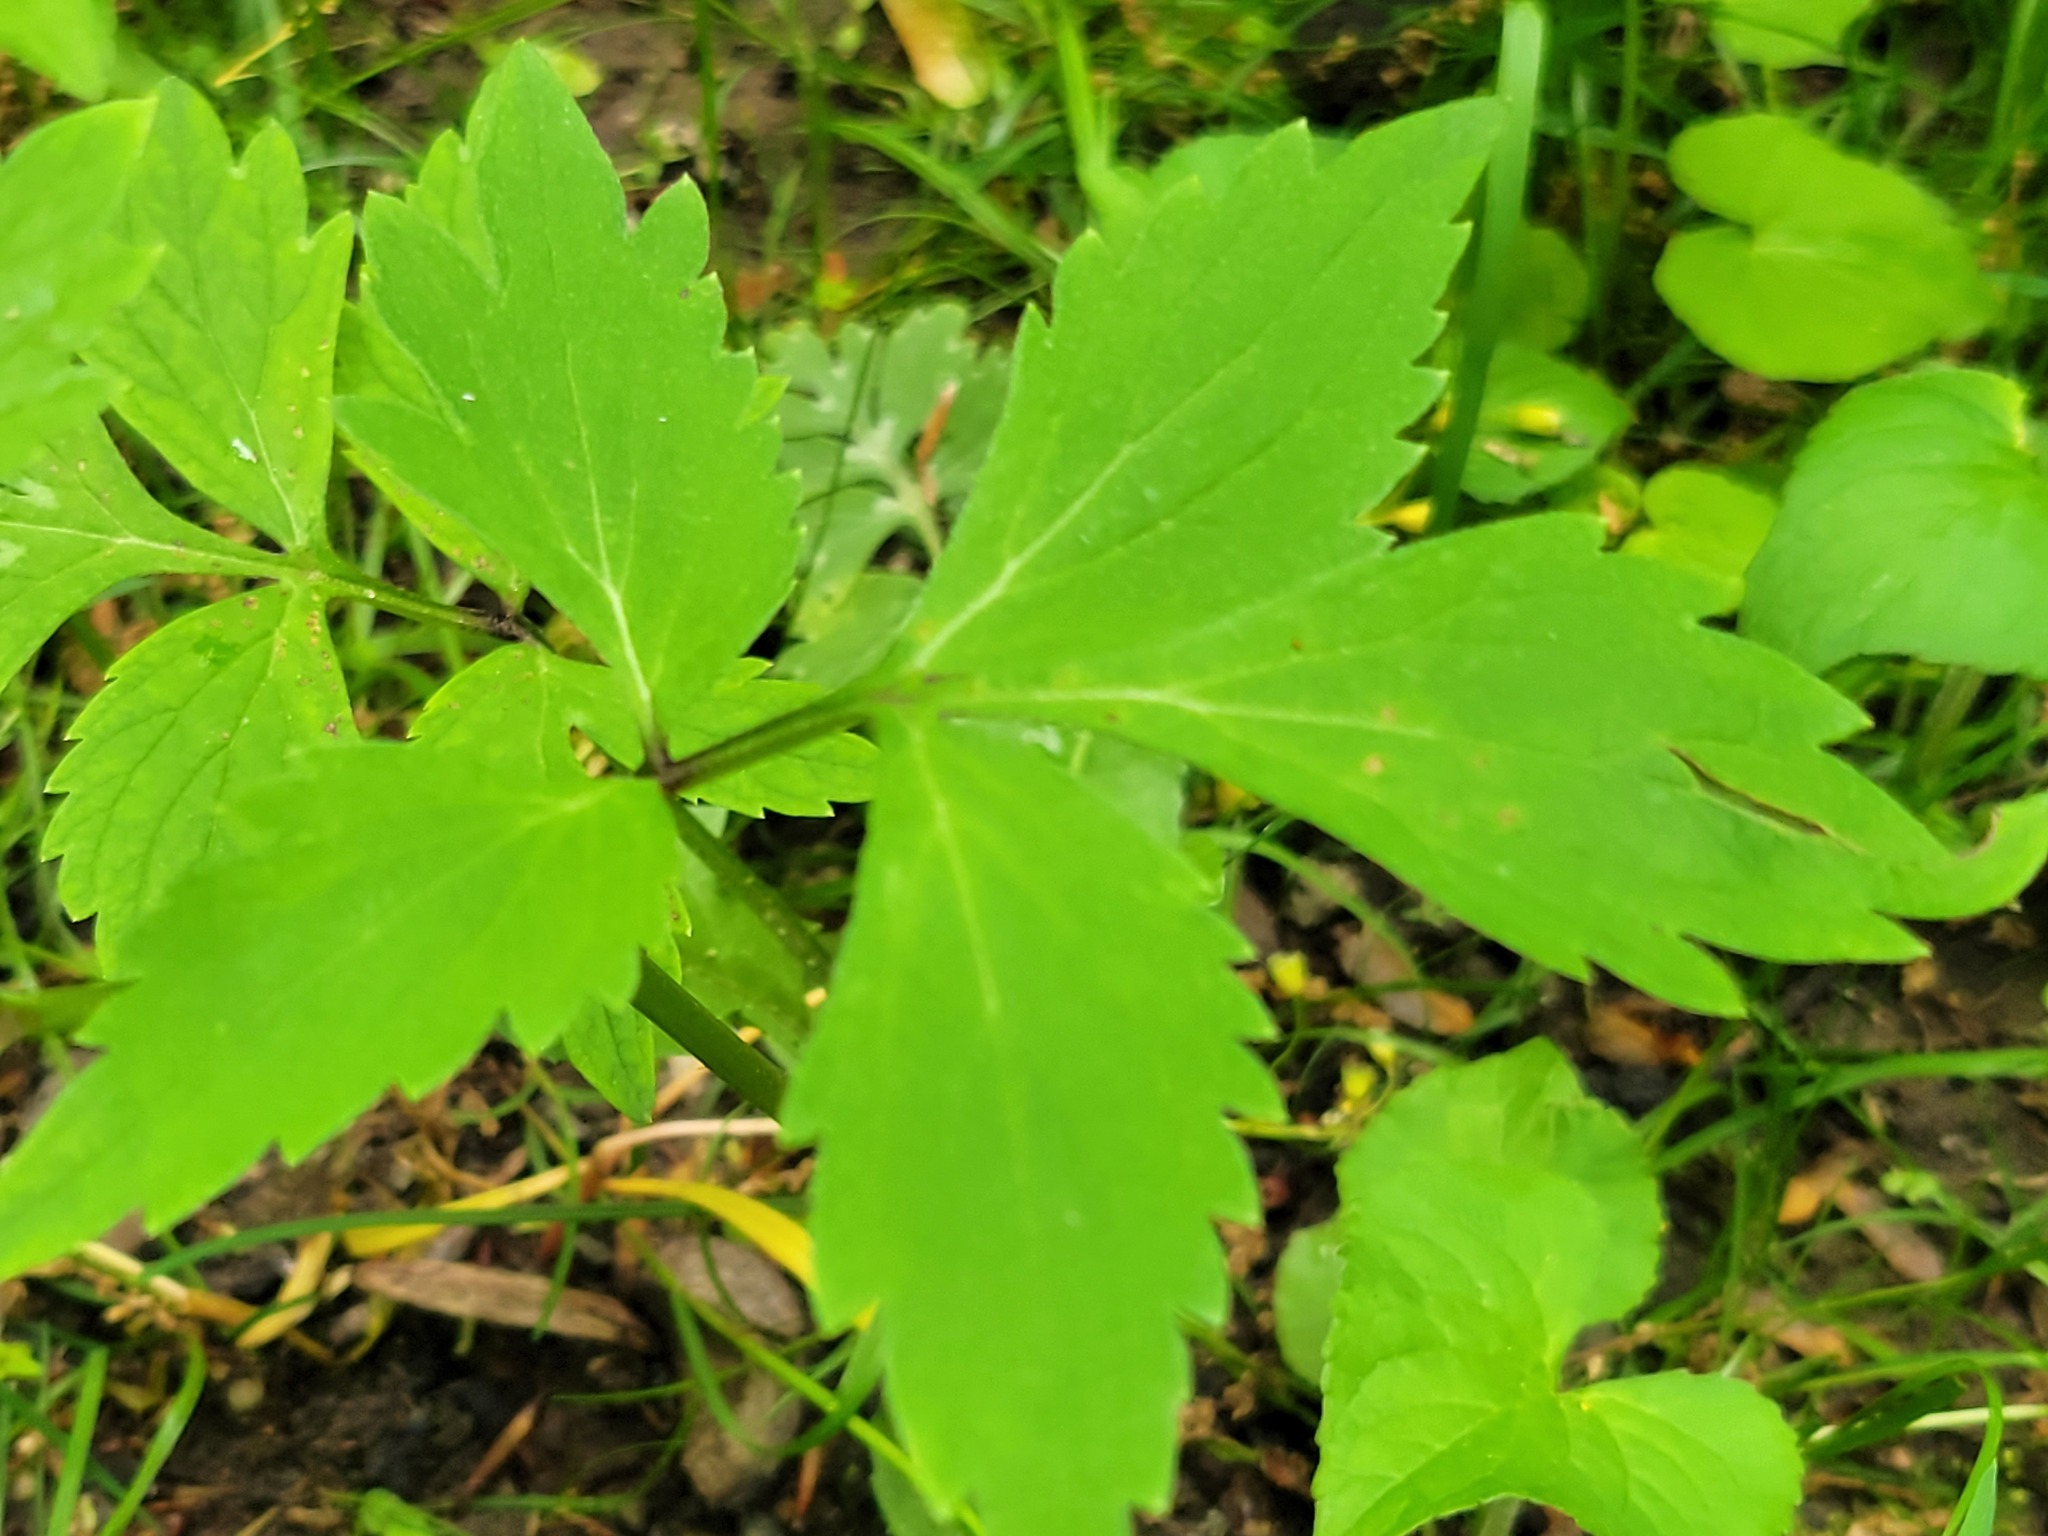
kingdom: Plantae
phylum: Tracheophyta
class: Magnoliopsida
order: Boraginales
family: Hydrophyllaceae
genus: Hydrophyllum
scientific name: Hydrophyllum virginianum
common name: Virginia waterleaf
